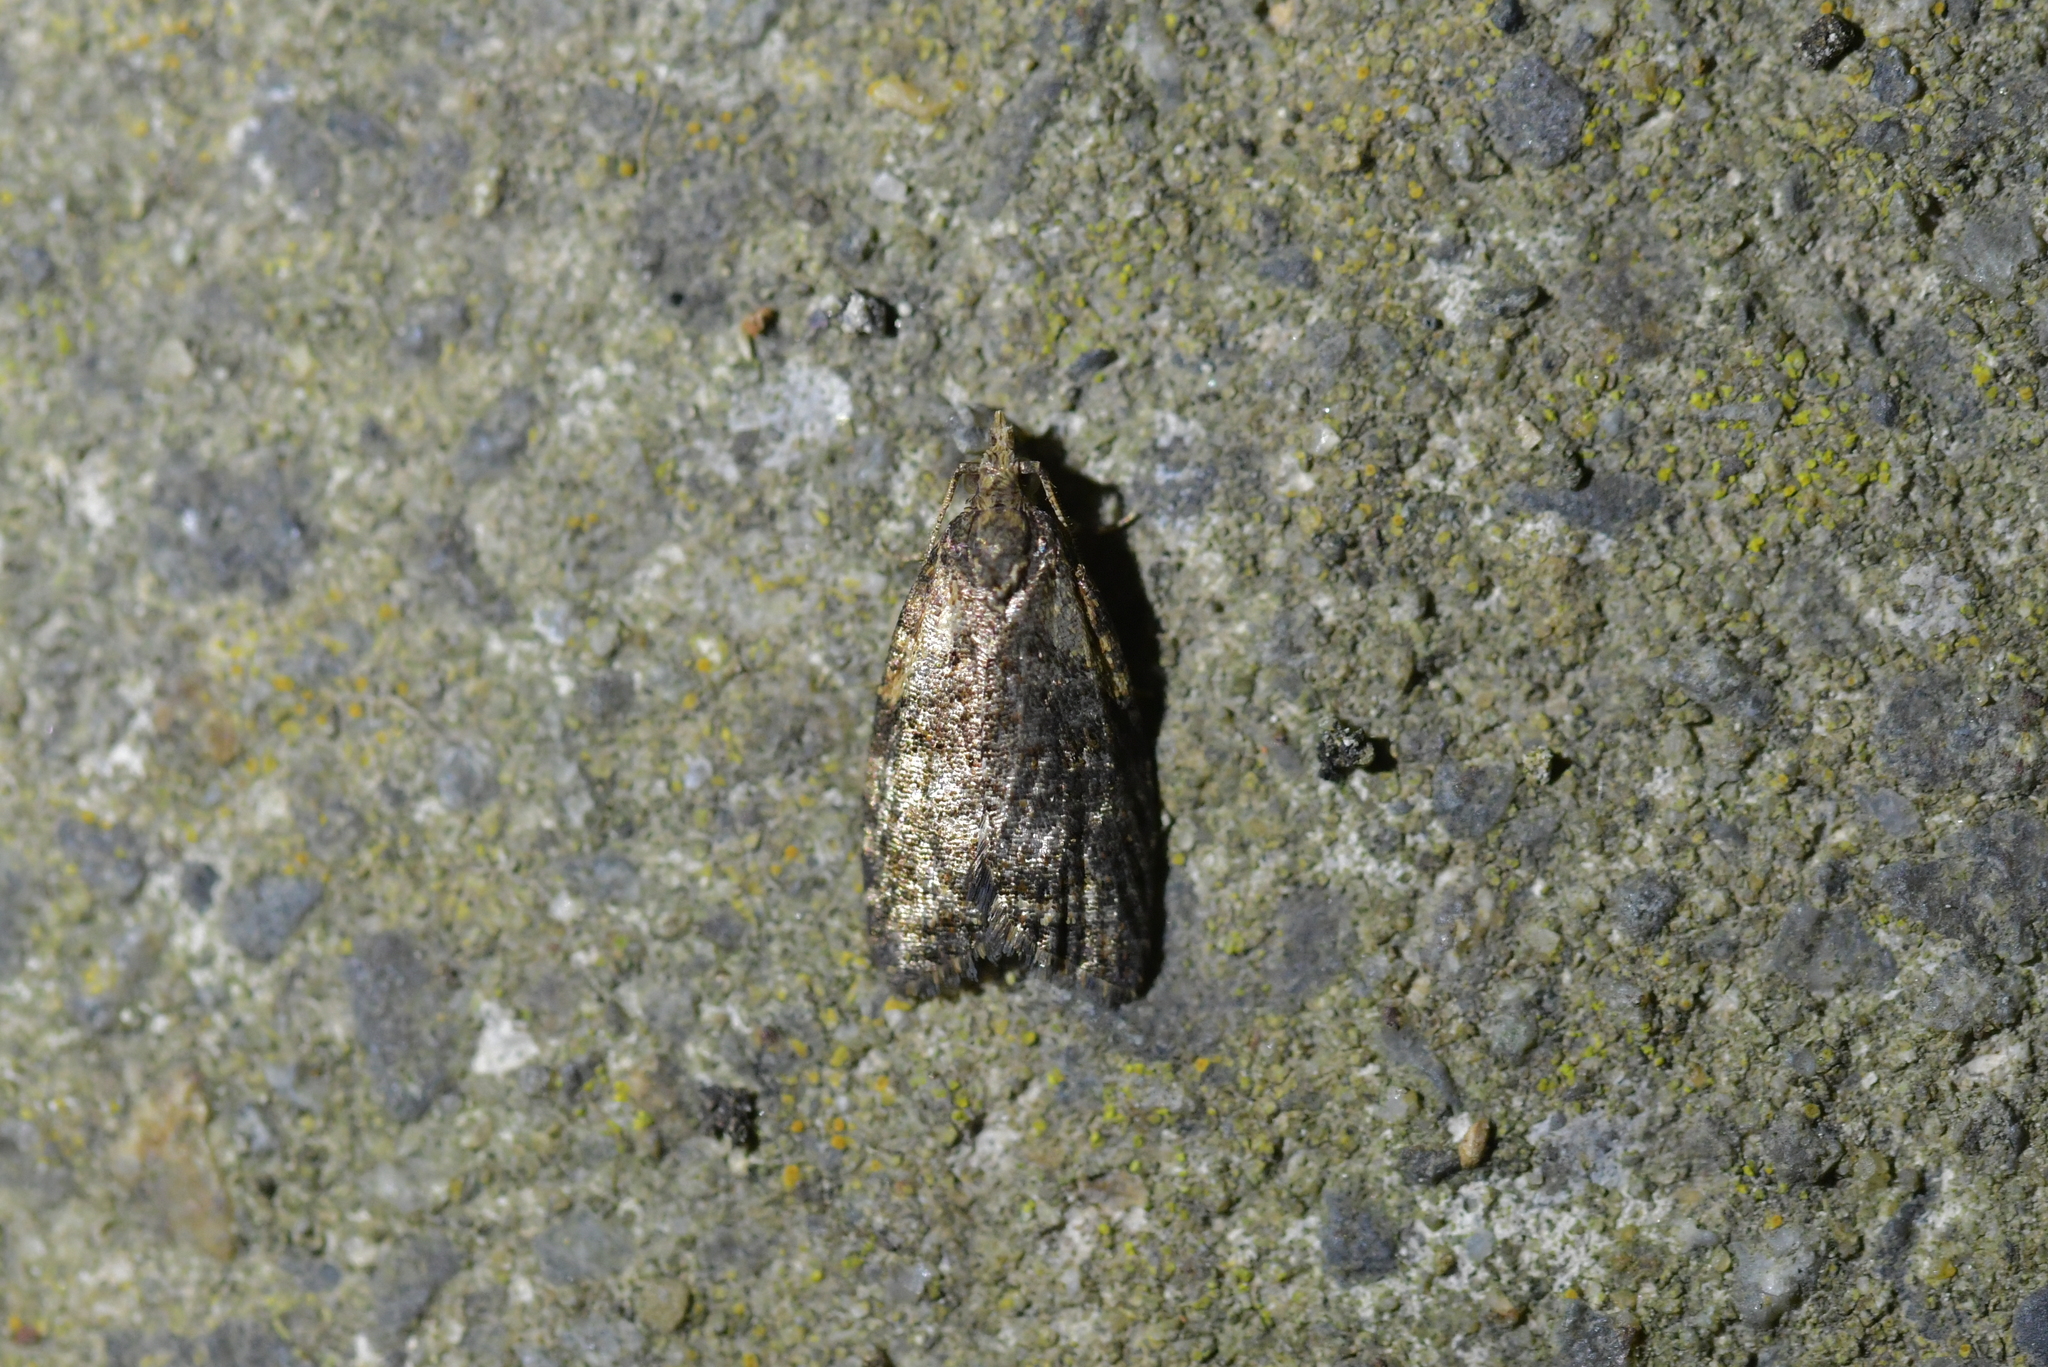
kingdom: Animalia
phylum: Arthropoda
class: Insecta
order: Lepidoptera
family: Tortricidae
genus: Capua
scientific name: Capua intractana
